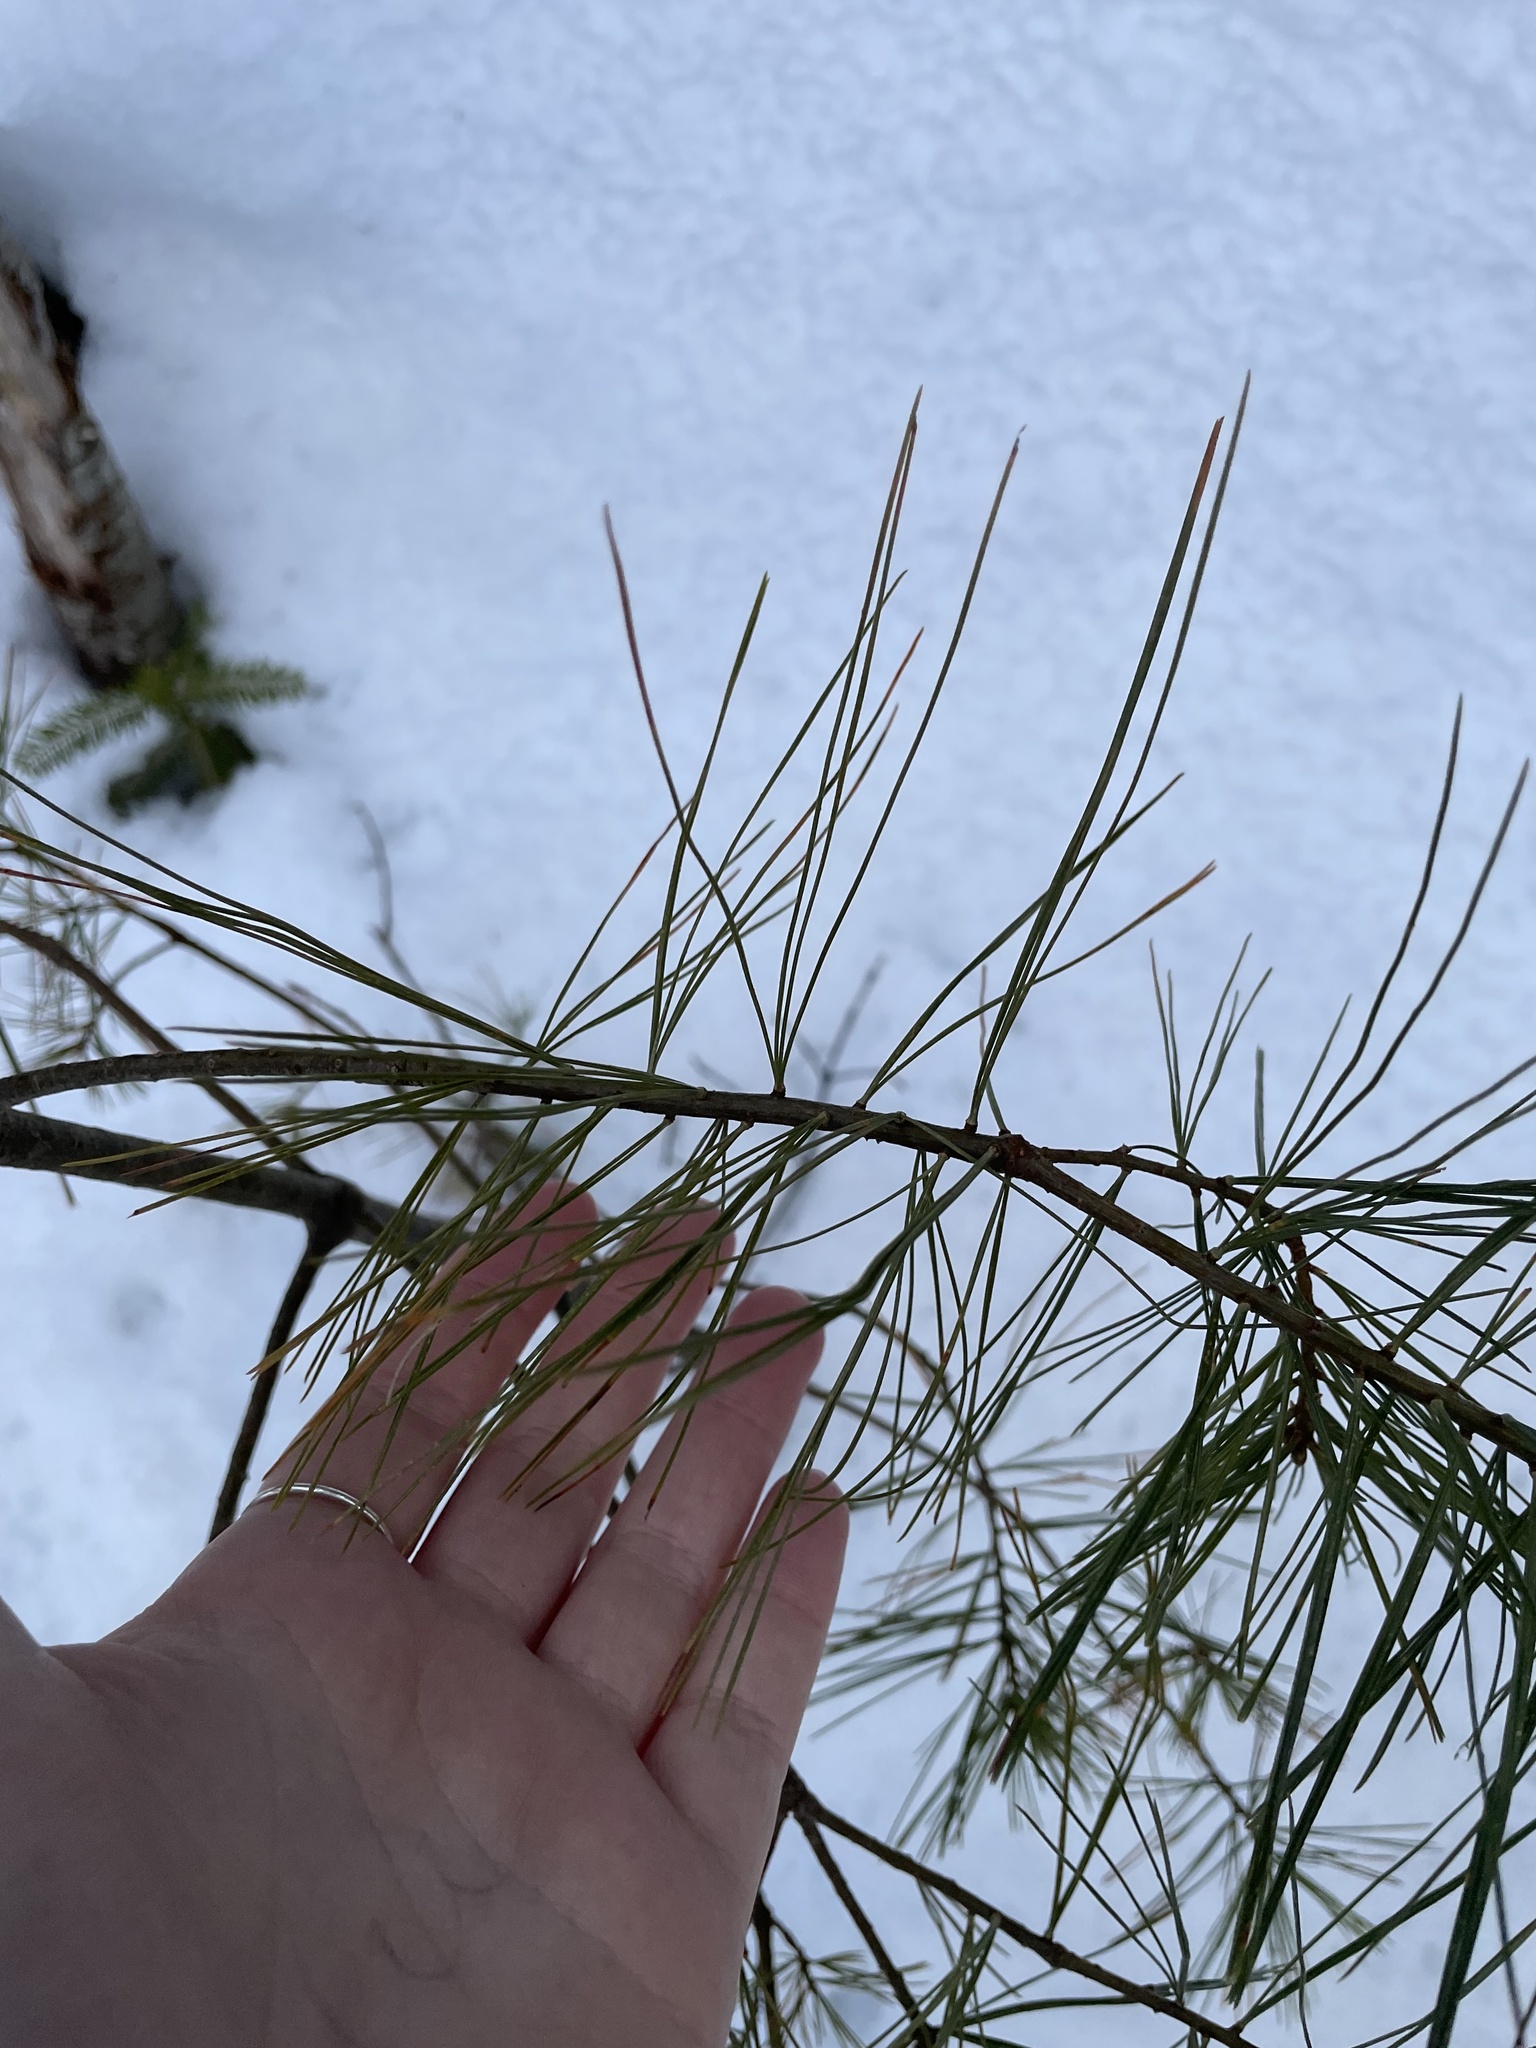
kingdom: Plantae
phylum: Tracheophyta
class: Pinopsida
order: Pinales
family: Pinaceae
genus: Pinus
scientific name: Pinus strobus
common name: Weymouth pine
